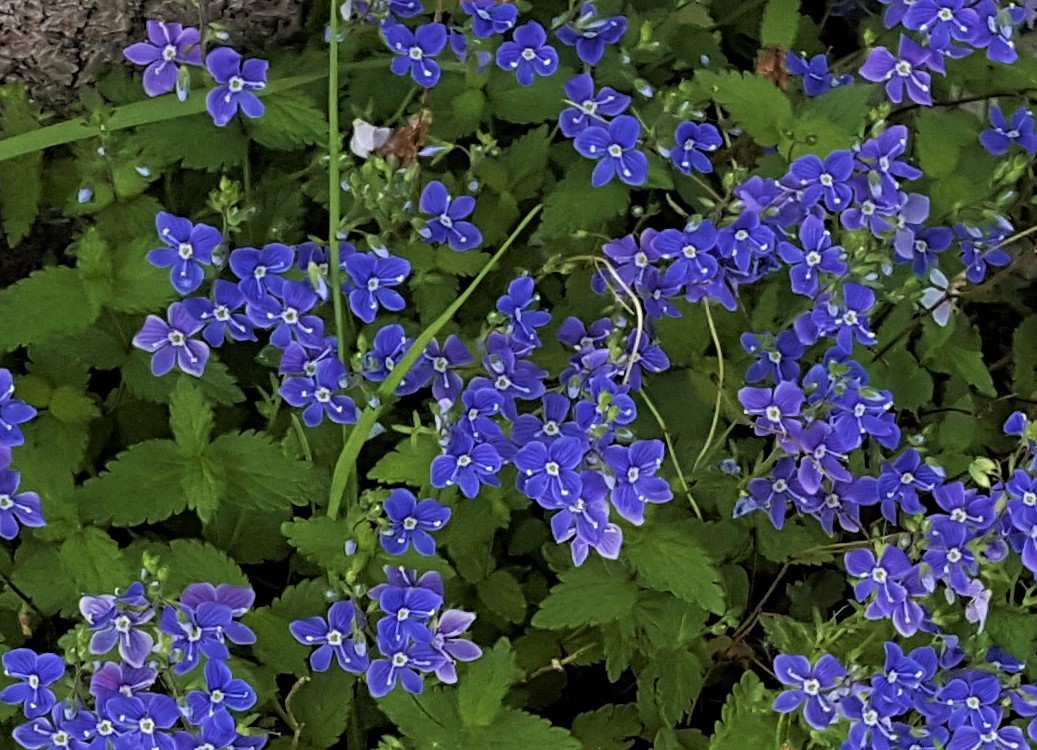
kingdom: Plantae
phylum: Tracheophyta
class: Magnoliopsida
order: Lamiales
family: Plantaginaceae
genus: Veronica
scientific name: Veronica chamaedrys
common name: Germander speedwell
